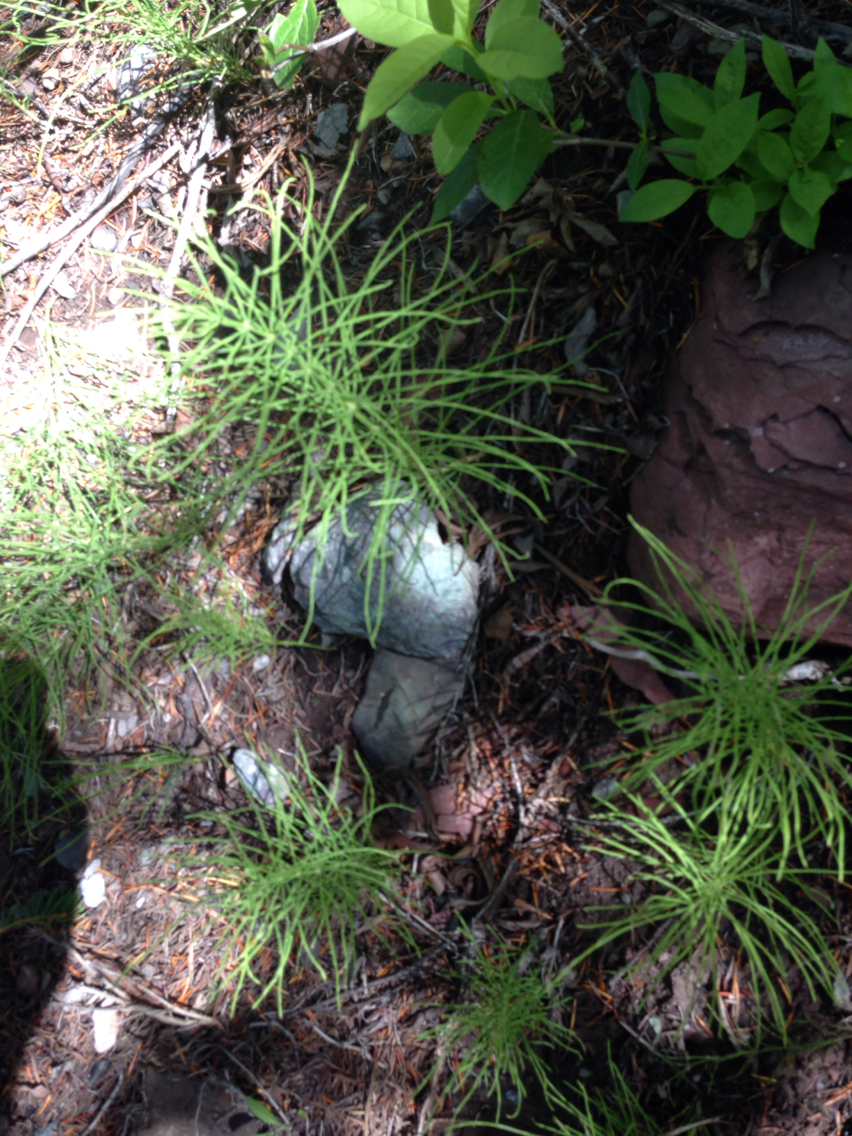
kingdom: Plantae
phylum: Tracheophyta
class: Polypodiopsida
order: Equisetales
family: Equisetaceae
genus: Equisetum
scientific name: Equisetum arvense
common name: Field horsetail
